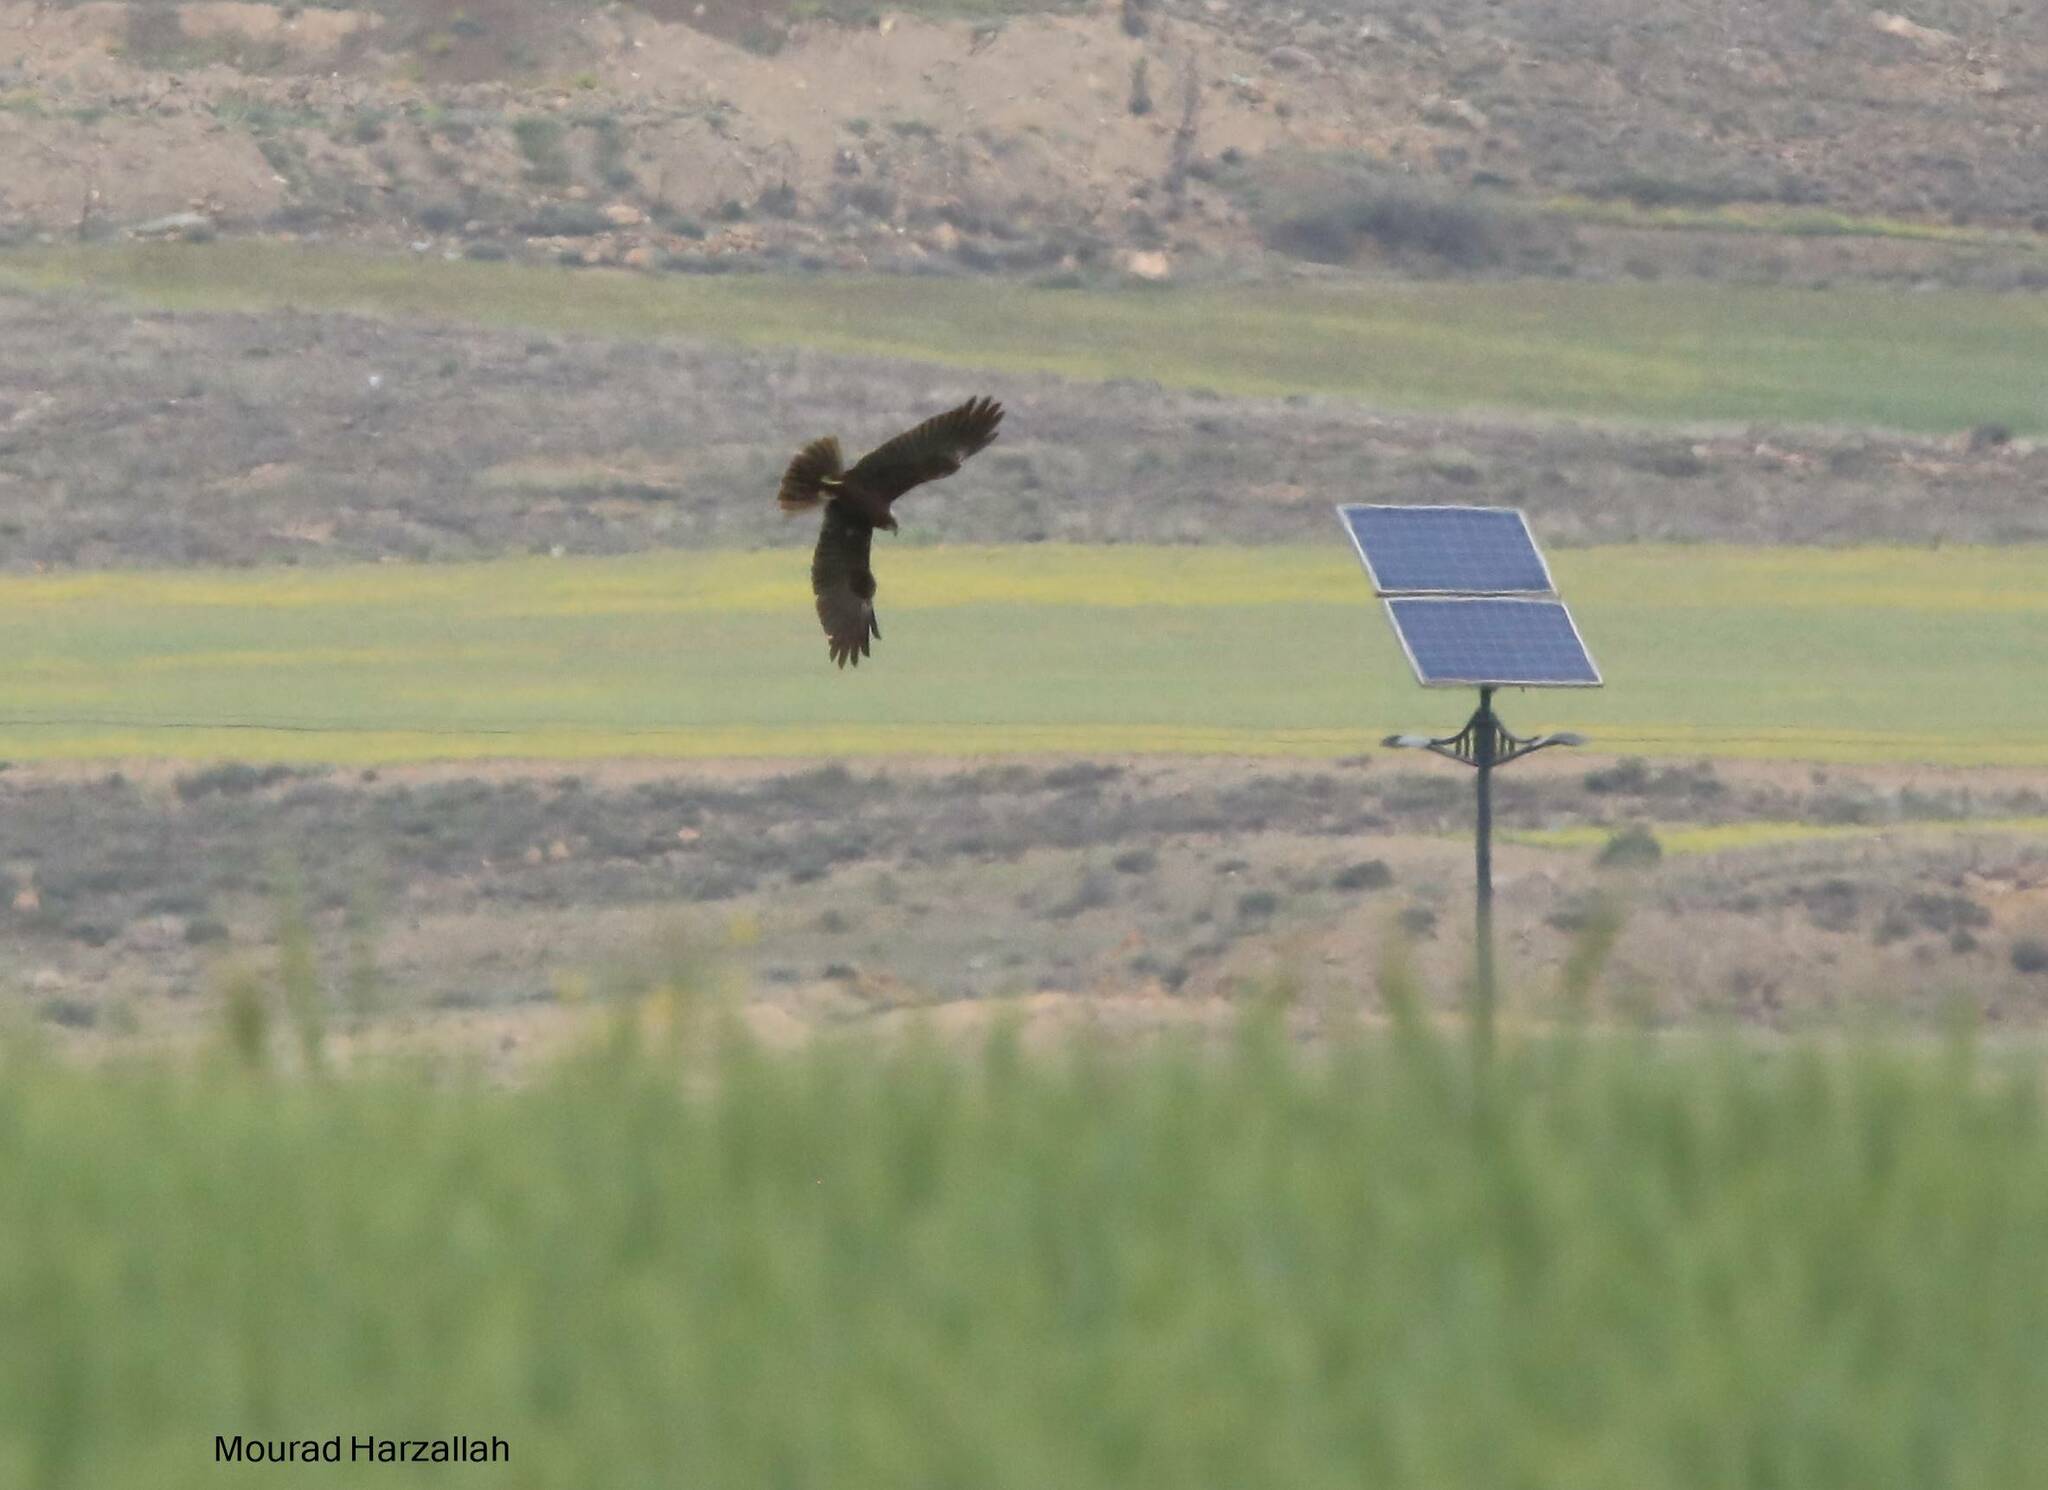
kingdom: Animalia
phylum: Chordata
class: Aves
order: Accipitriformes
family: Accipitridae
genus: Circus
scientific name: Circus aeruginosus
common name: Western marsh harrier
